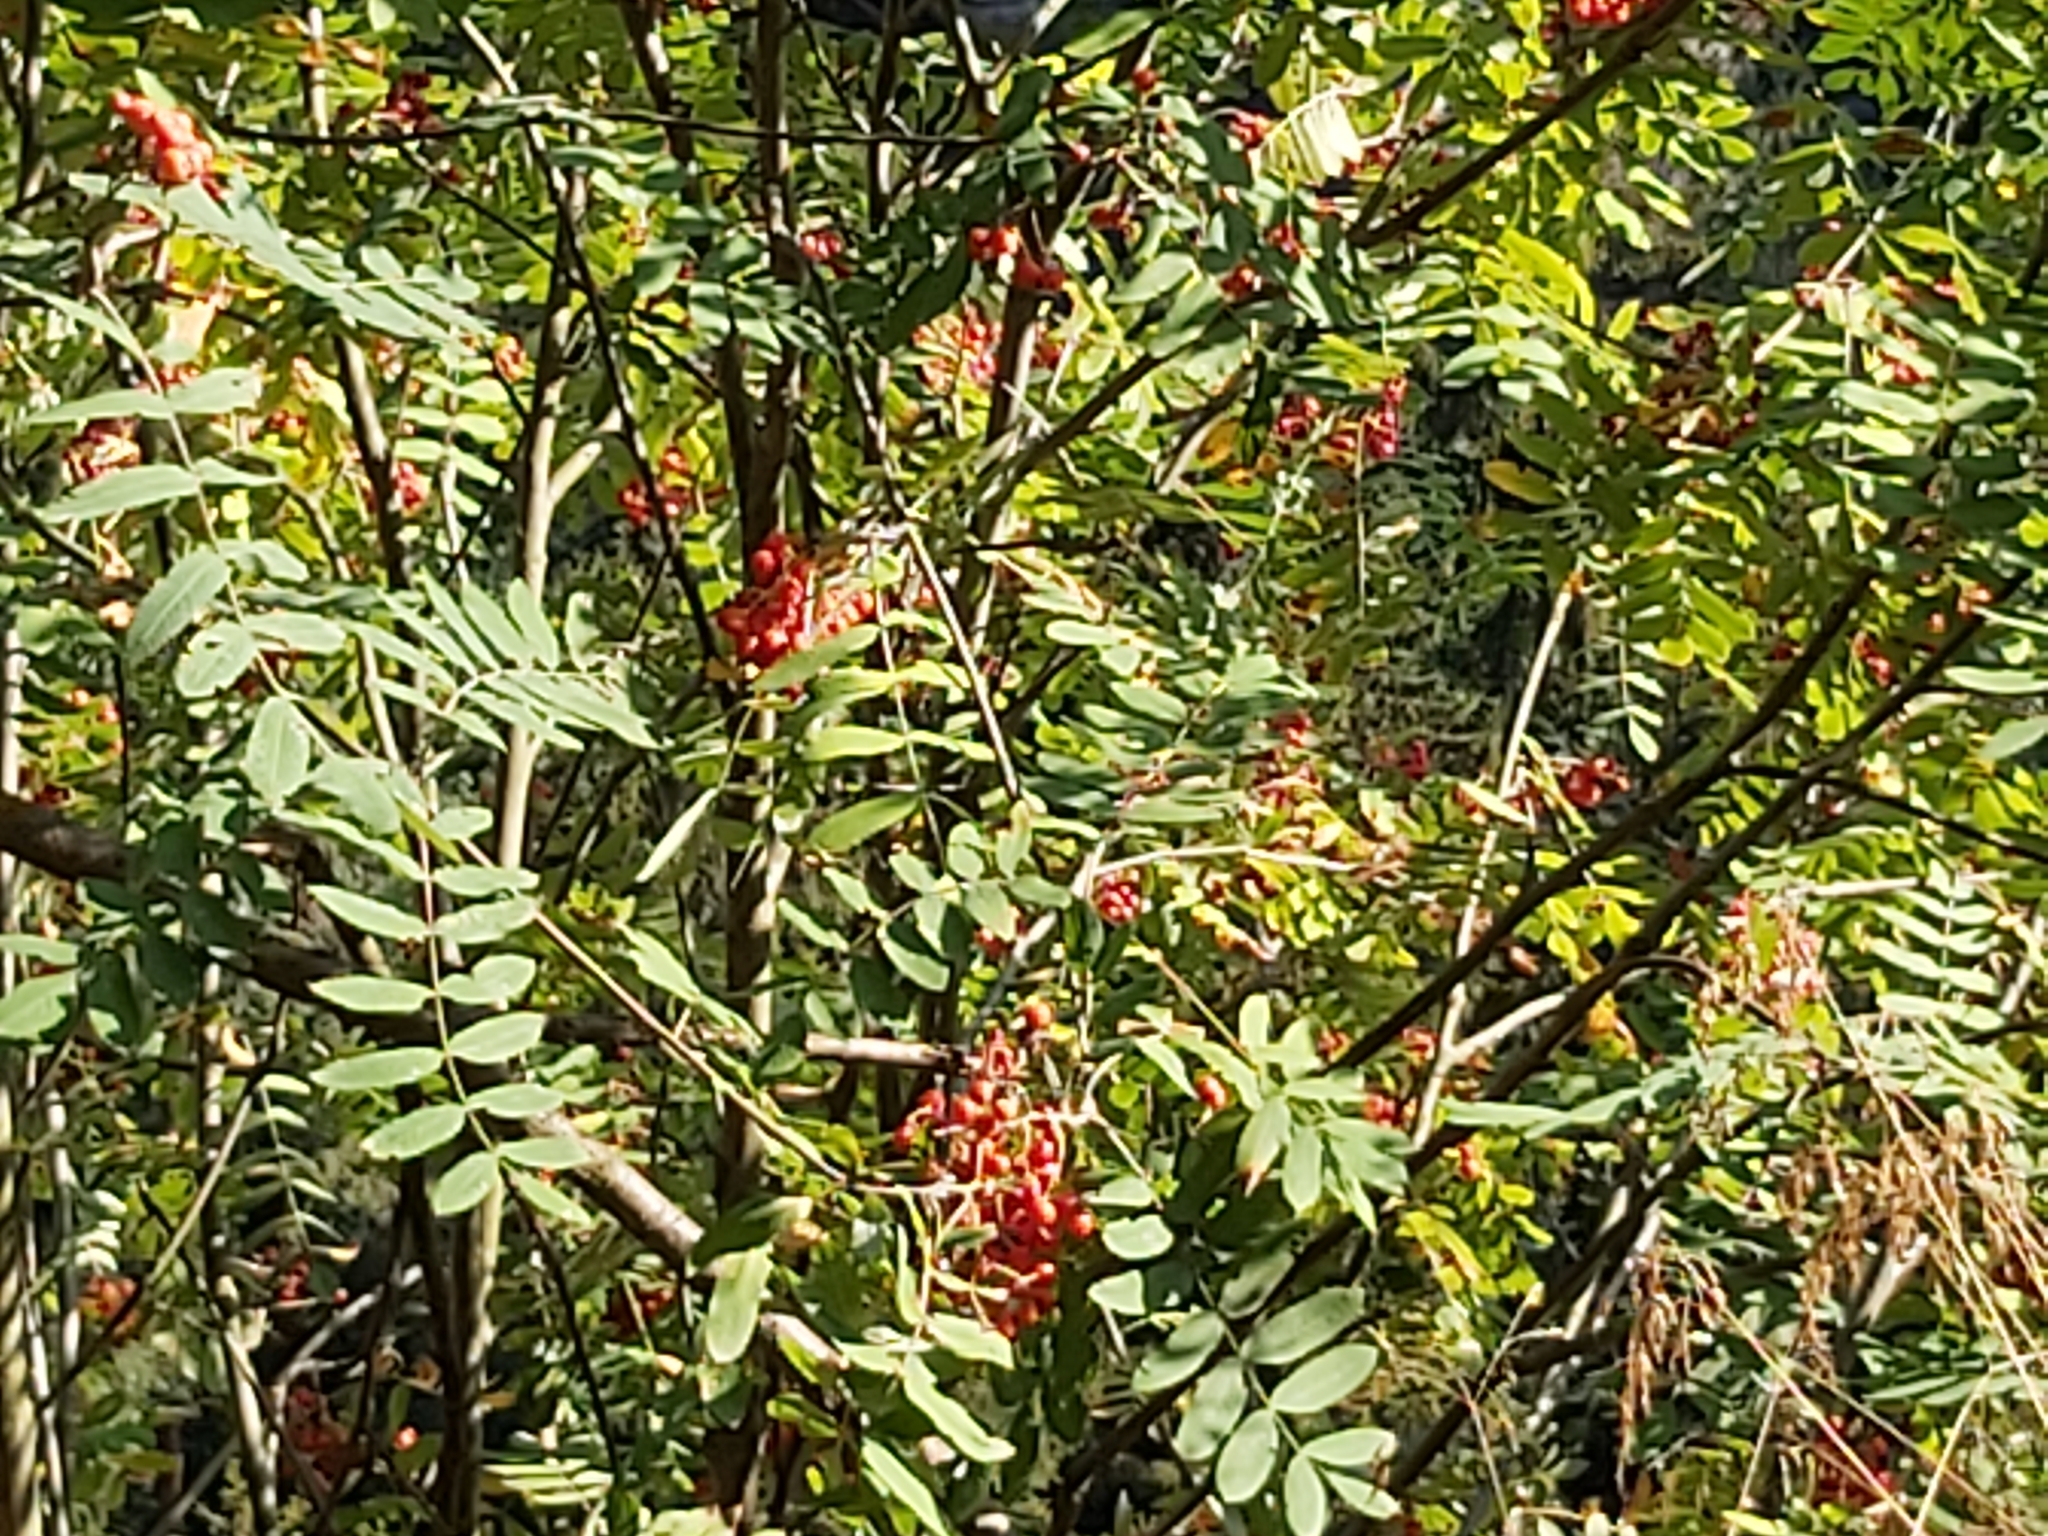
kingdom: Plantae
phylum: Tracheophyta
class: Magnoliopsida
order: Rosales
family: Rosaceae
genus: Sorbus
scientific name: Sorbus aucuparia
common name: Rowan
